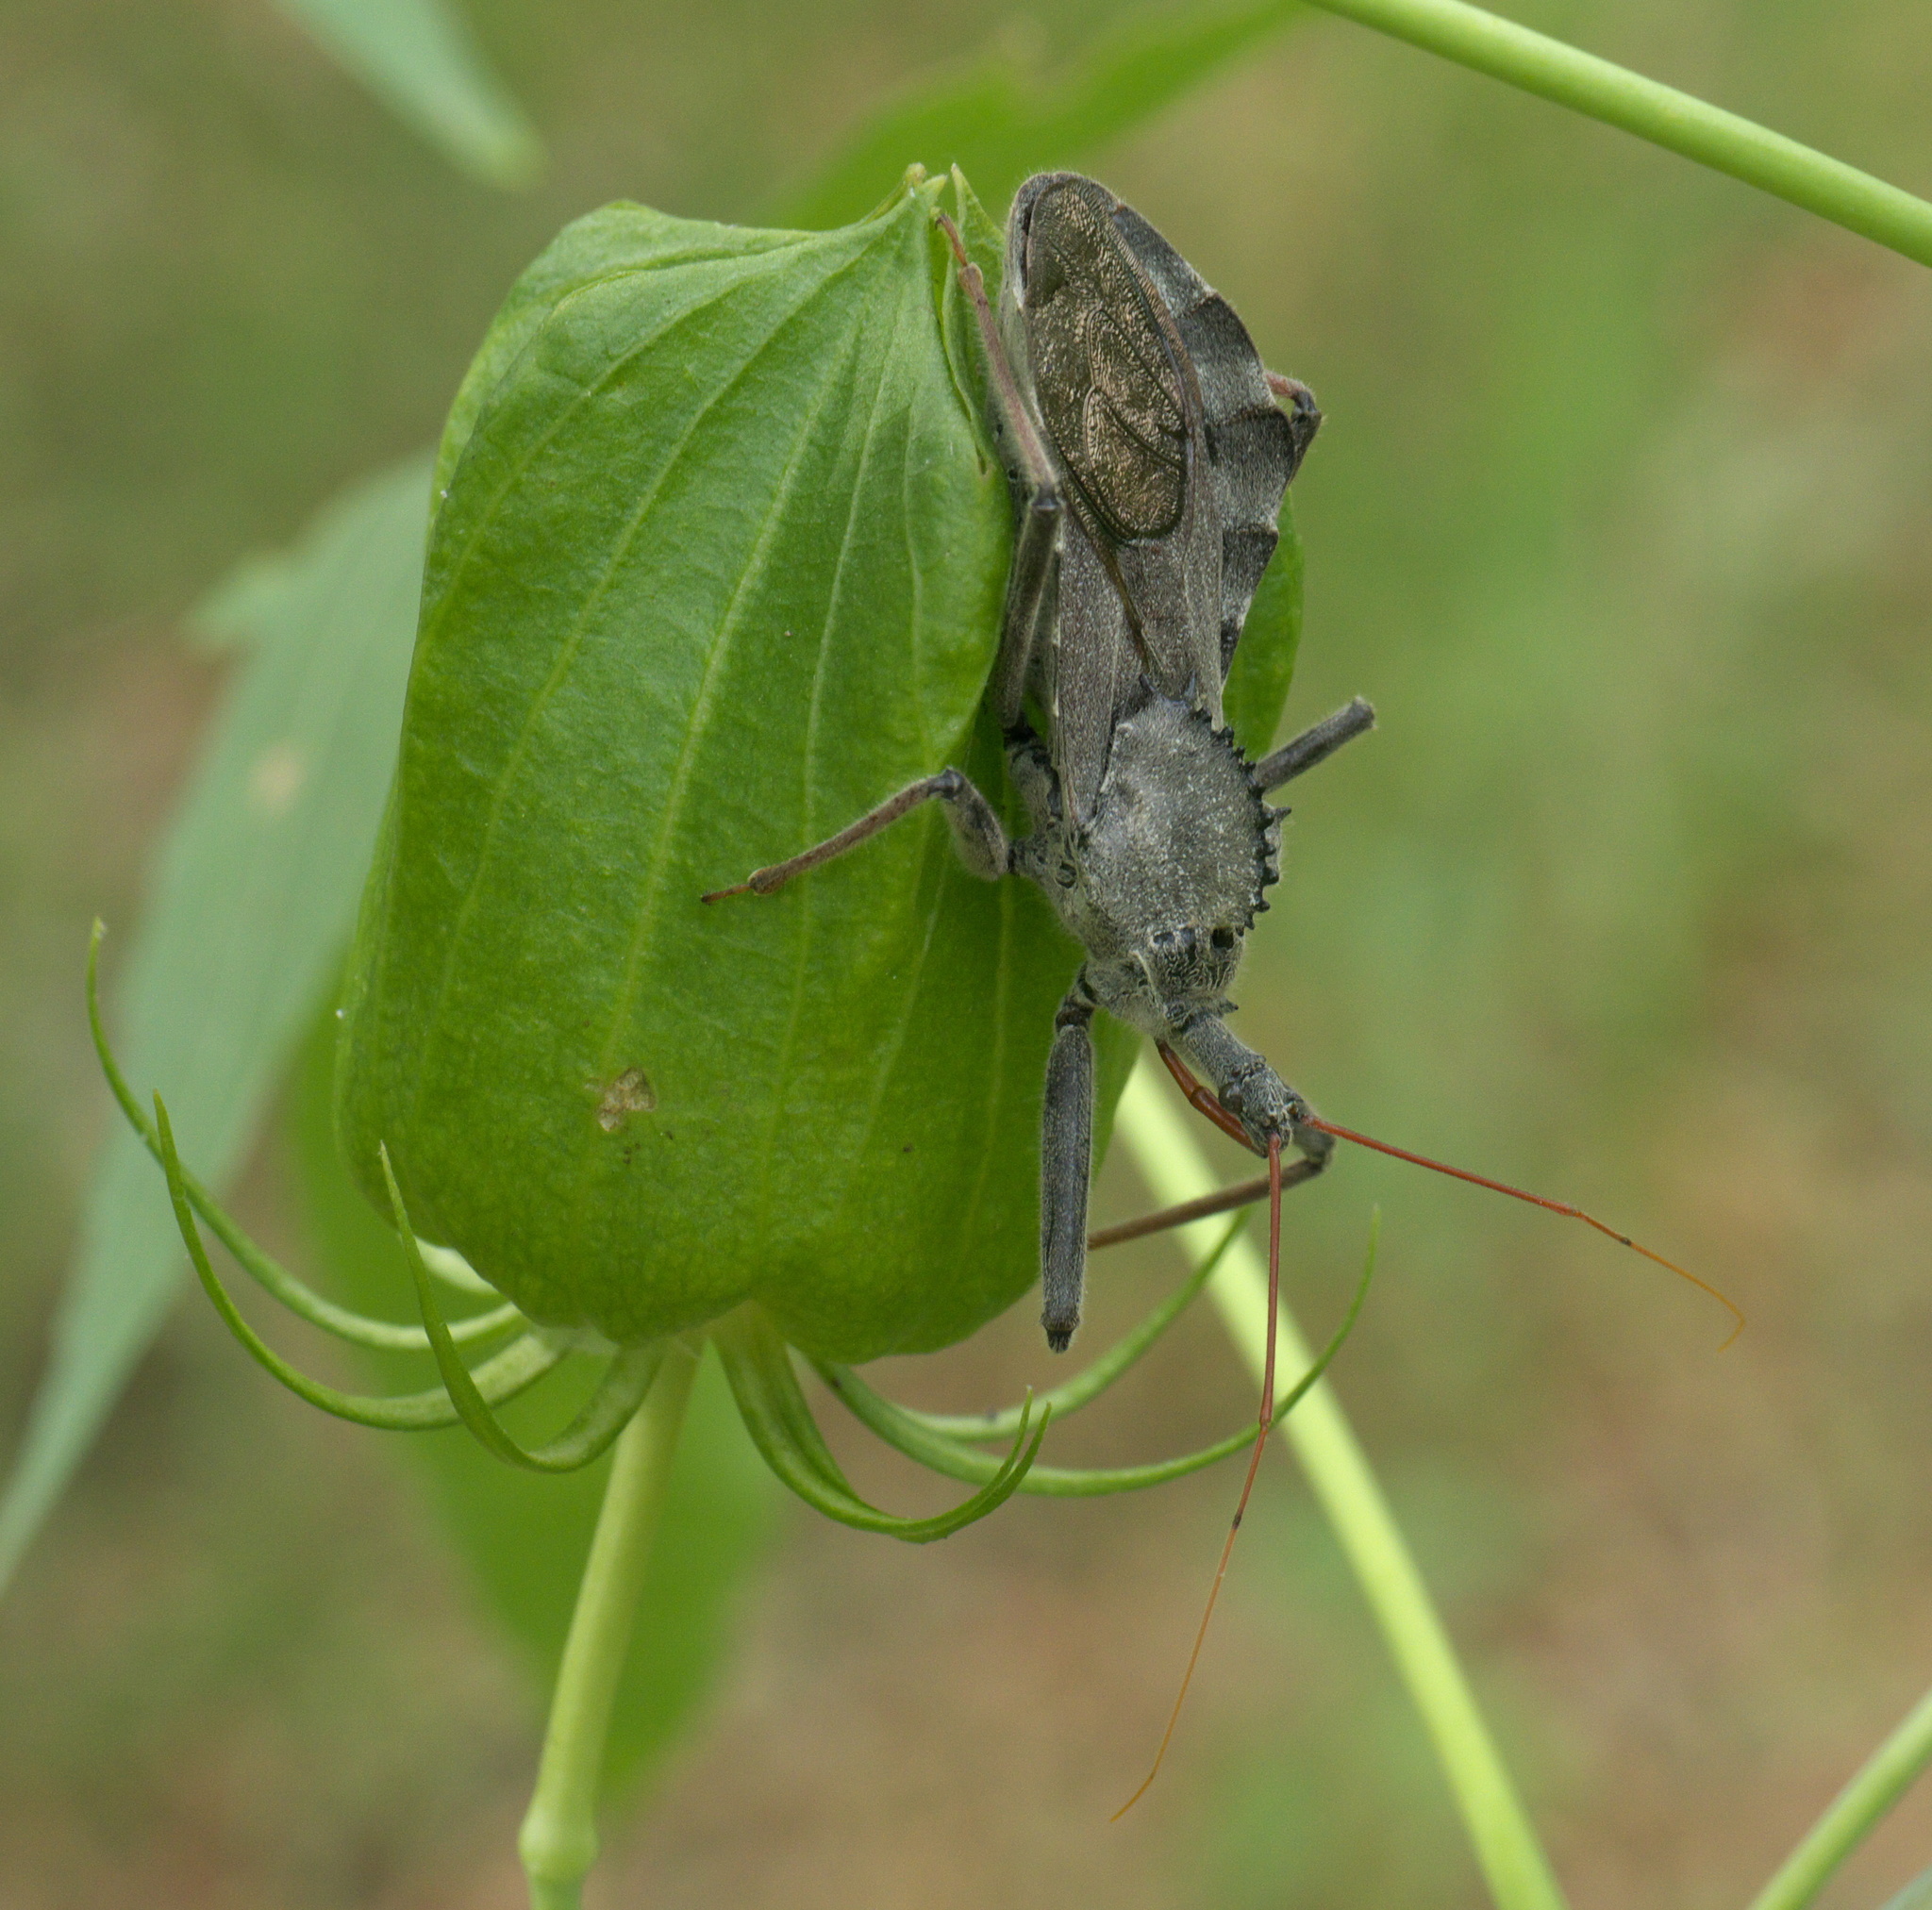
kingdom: Animalia
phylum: Arthropoda
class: Insecta
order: Hemiptera
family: Reduviidae
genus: Arilus
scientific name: Arilus cristatus
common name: North american wheel bug
